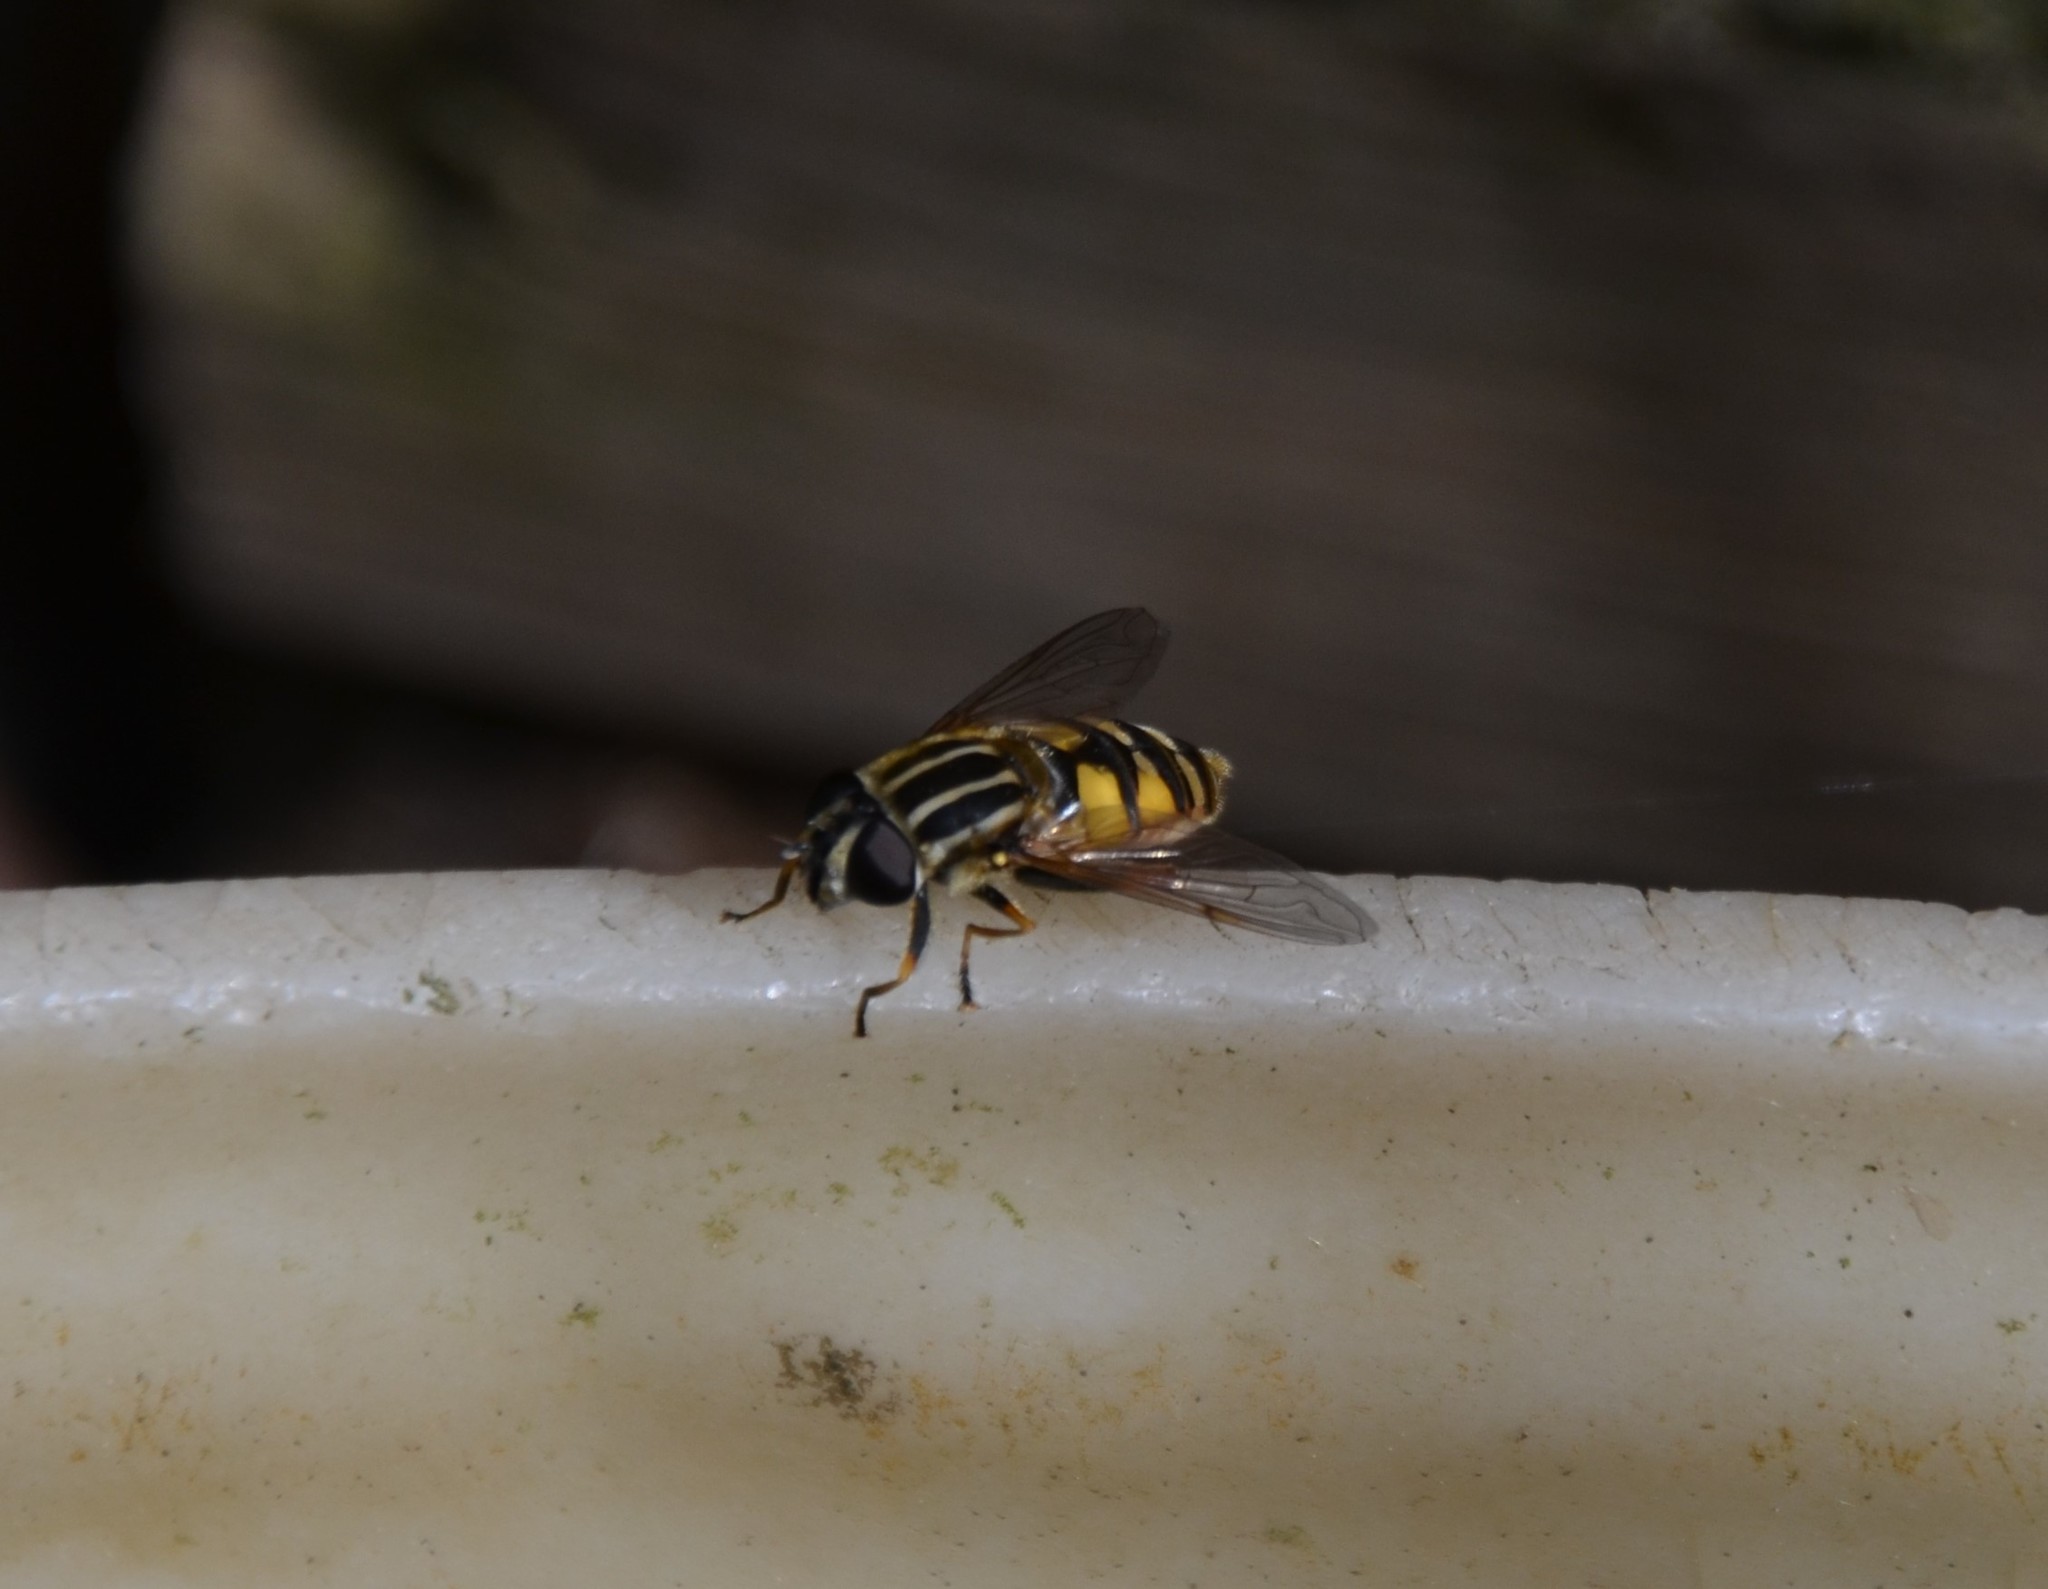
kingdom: Animalia
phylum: Arthropoda
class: Insecta
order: Diptera
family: Syrphidae
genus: Helophilus
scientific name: Helophilus pendulus
